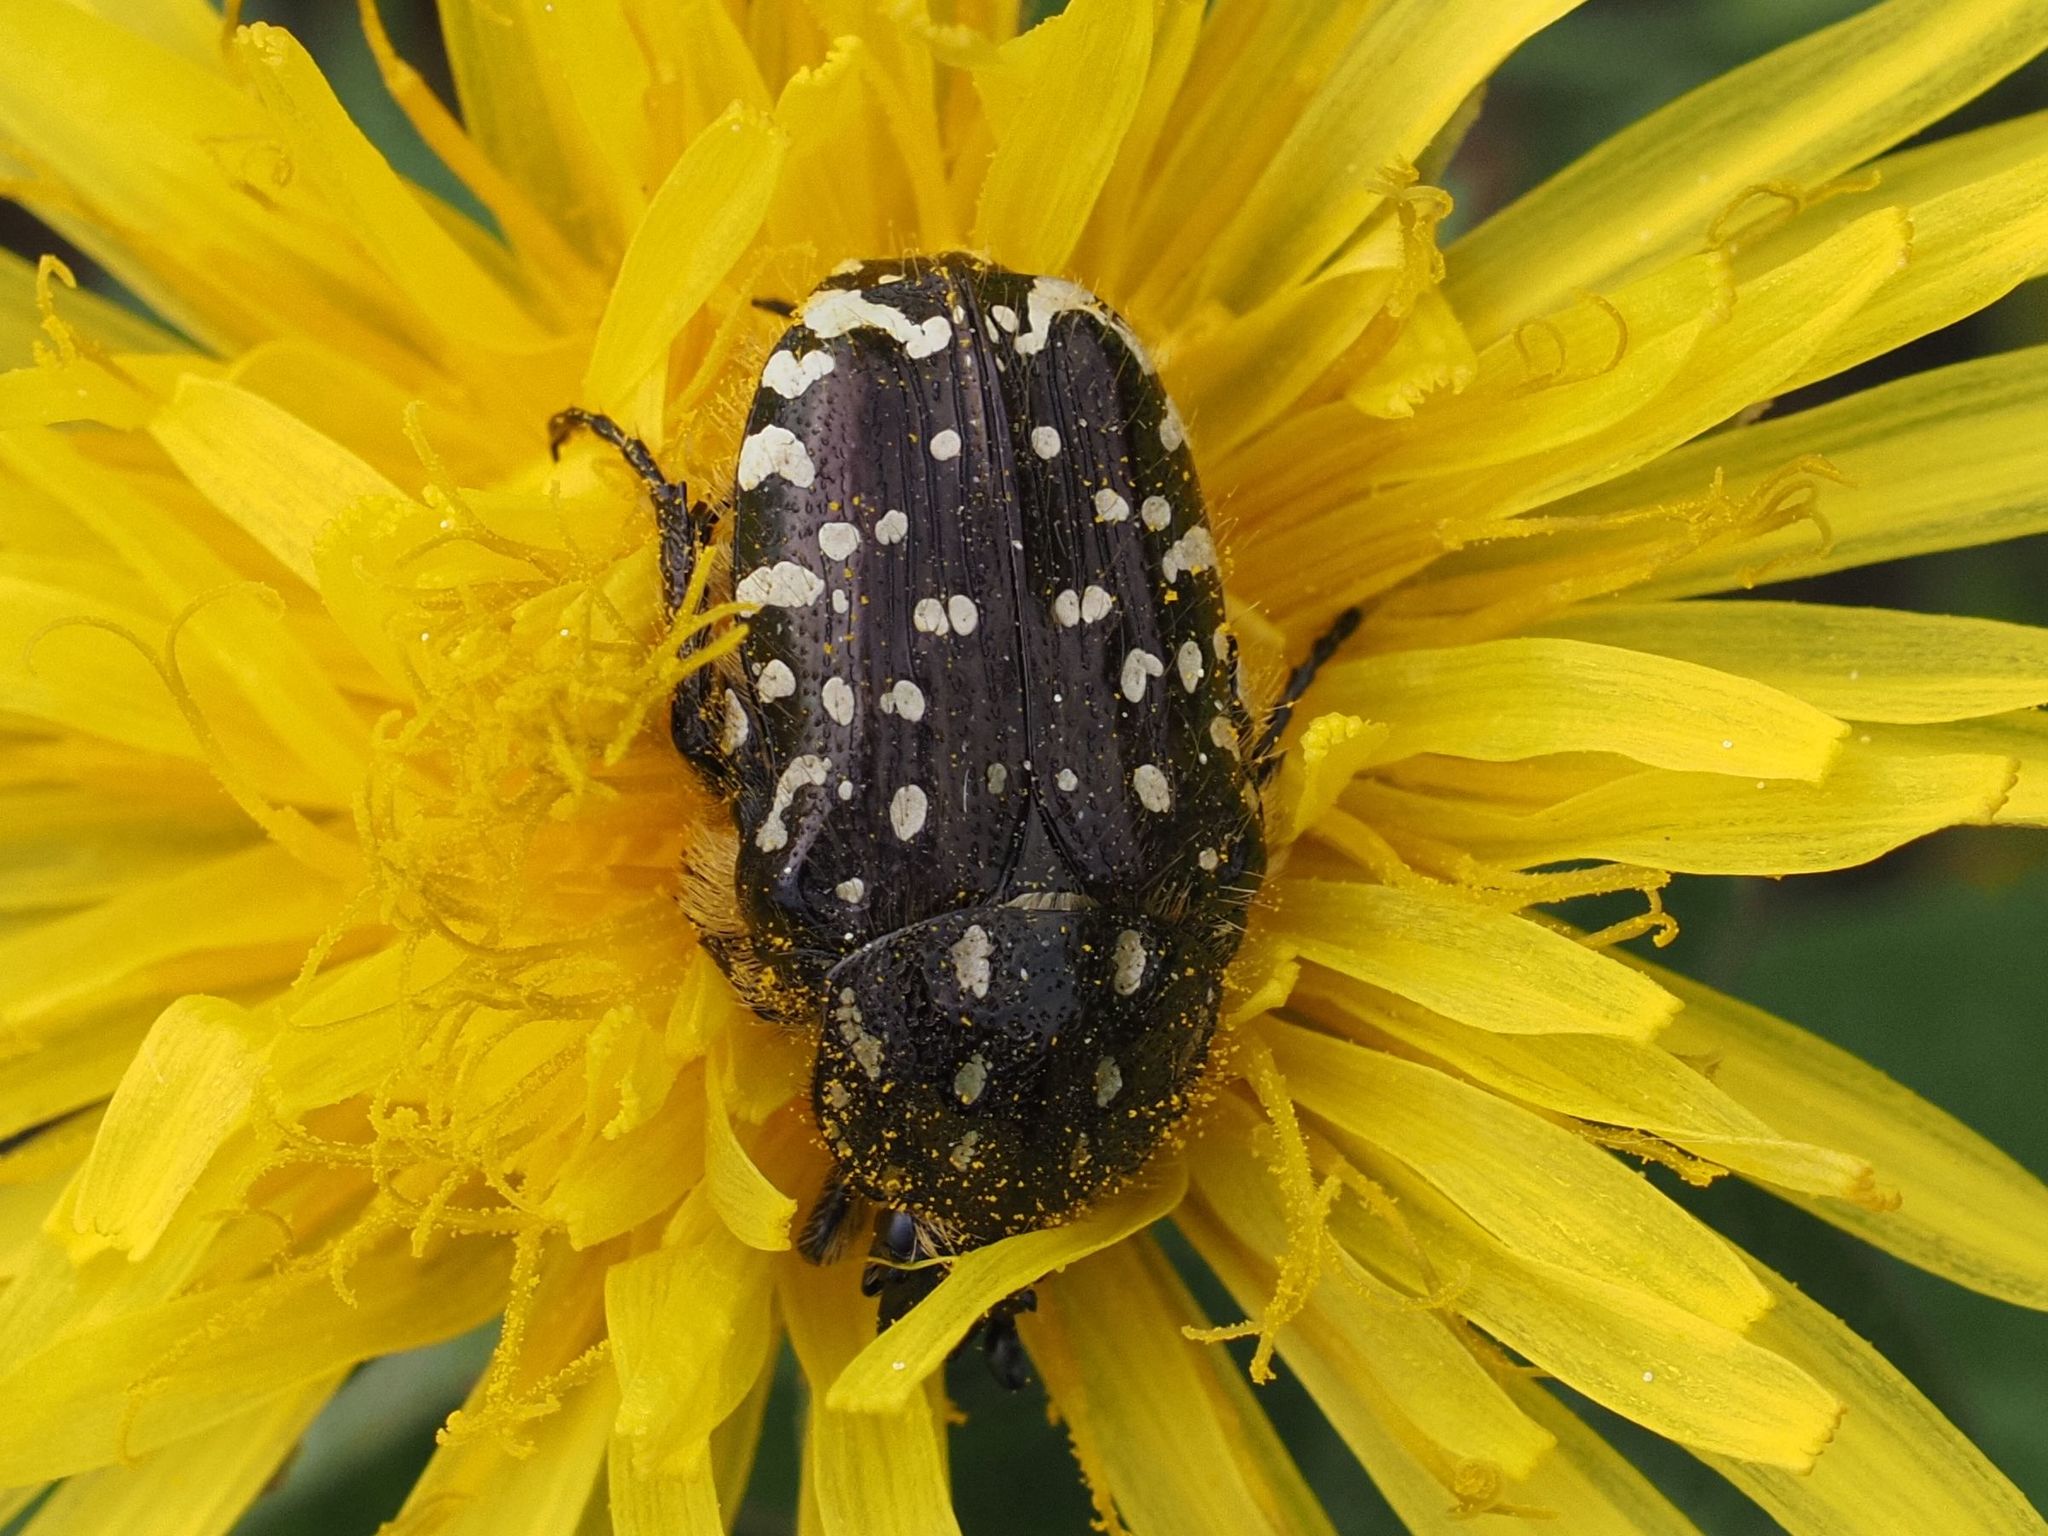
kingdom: Animalia
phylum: Arthropoda
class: Insecta
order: Coleoptera
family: Scarabaeidae
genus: Oxythyrea
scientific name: Oxythyrea funesta
